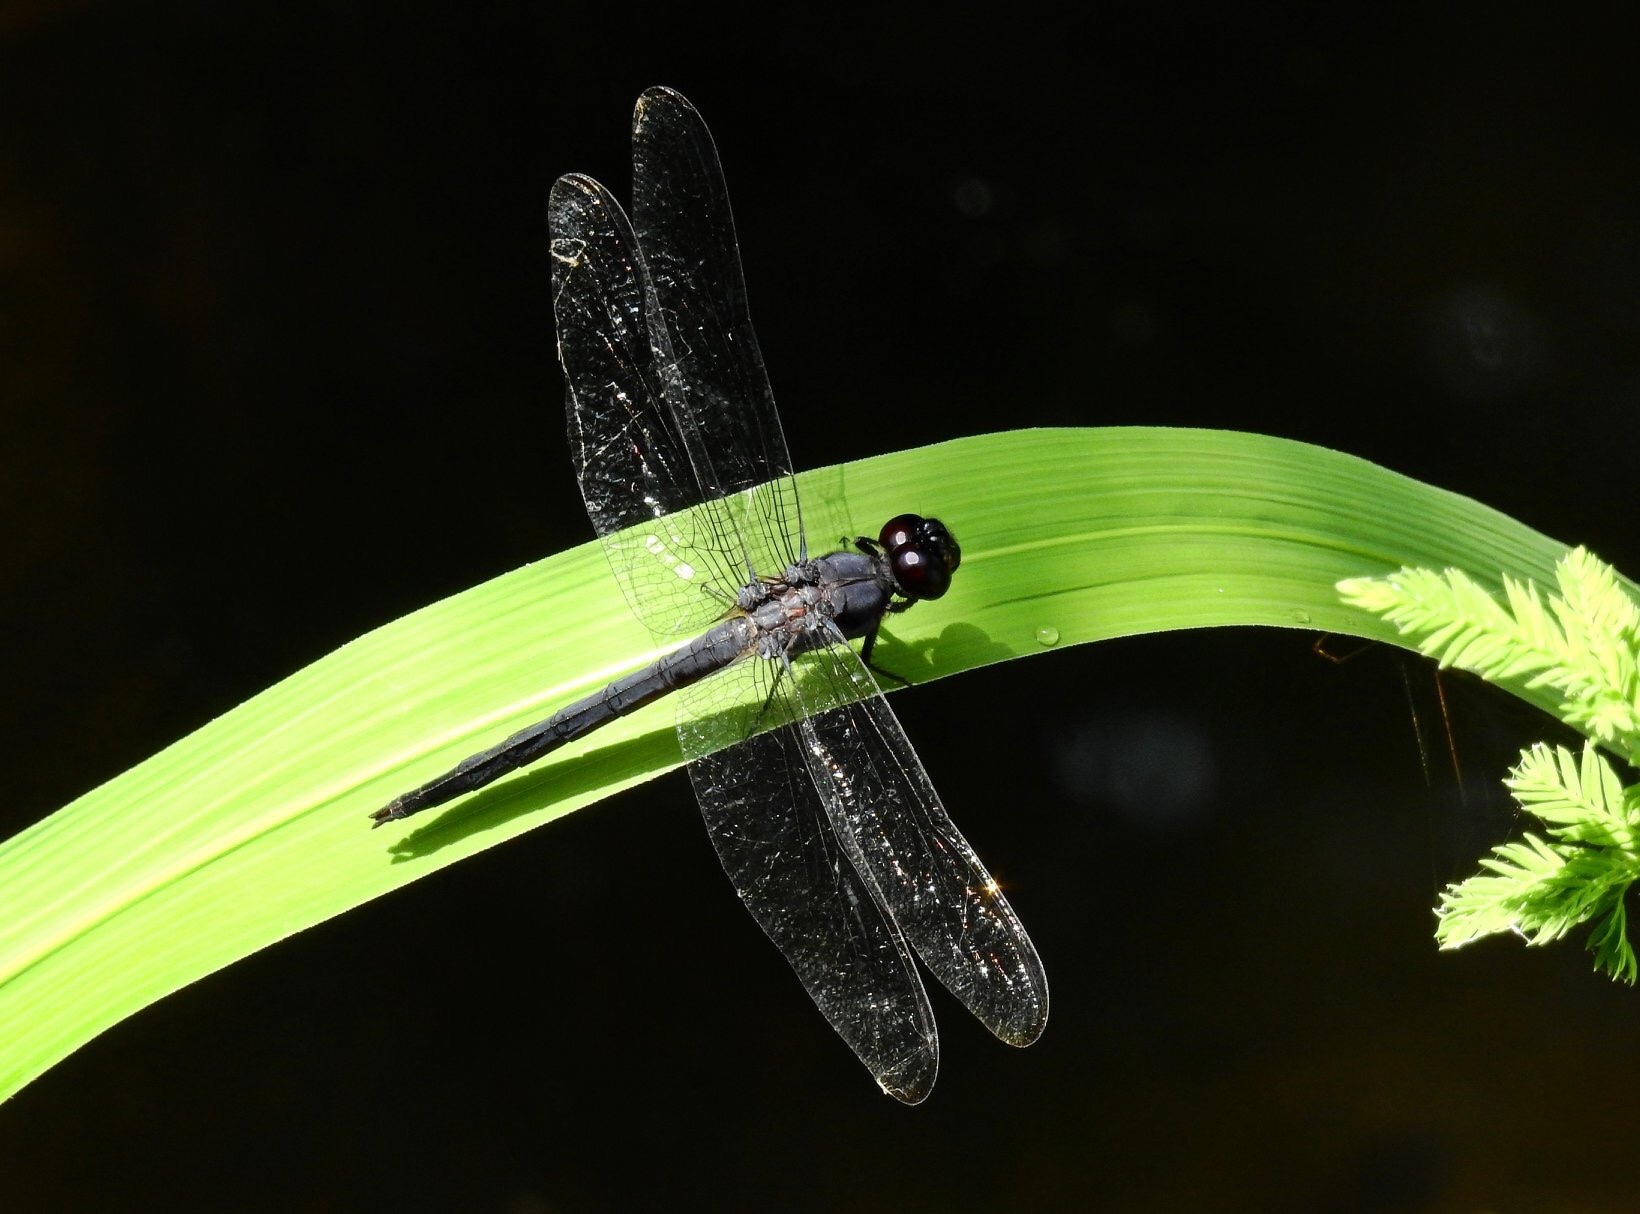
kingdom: Animalia
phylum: Arthropoda
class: Insecta
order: Odonata
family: Libellulidae
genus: Libellula
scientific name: Libellula incesta
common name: Slaty skimmer
